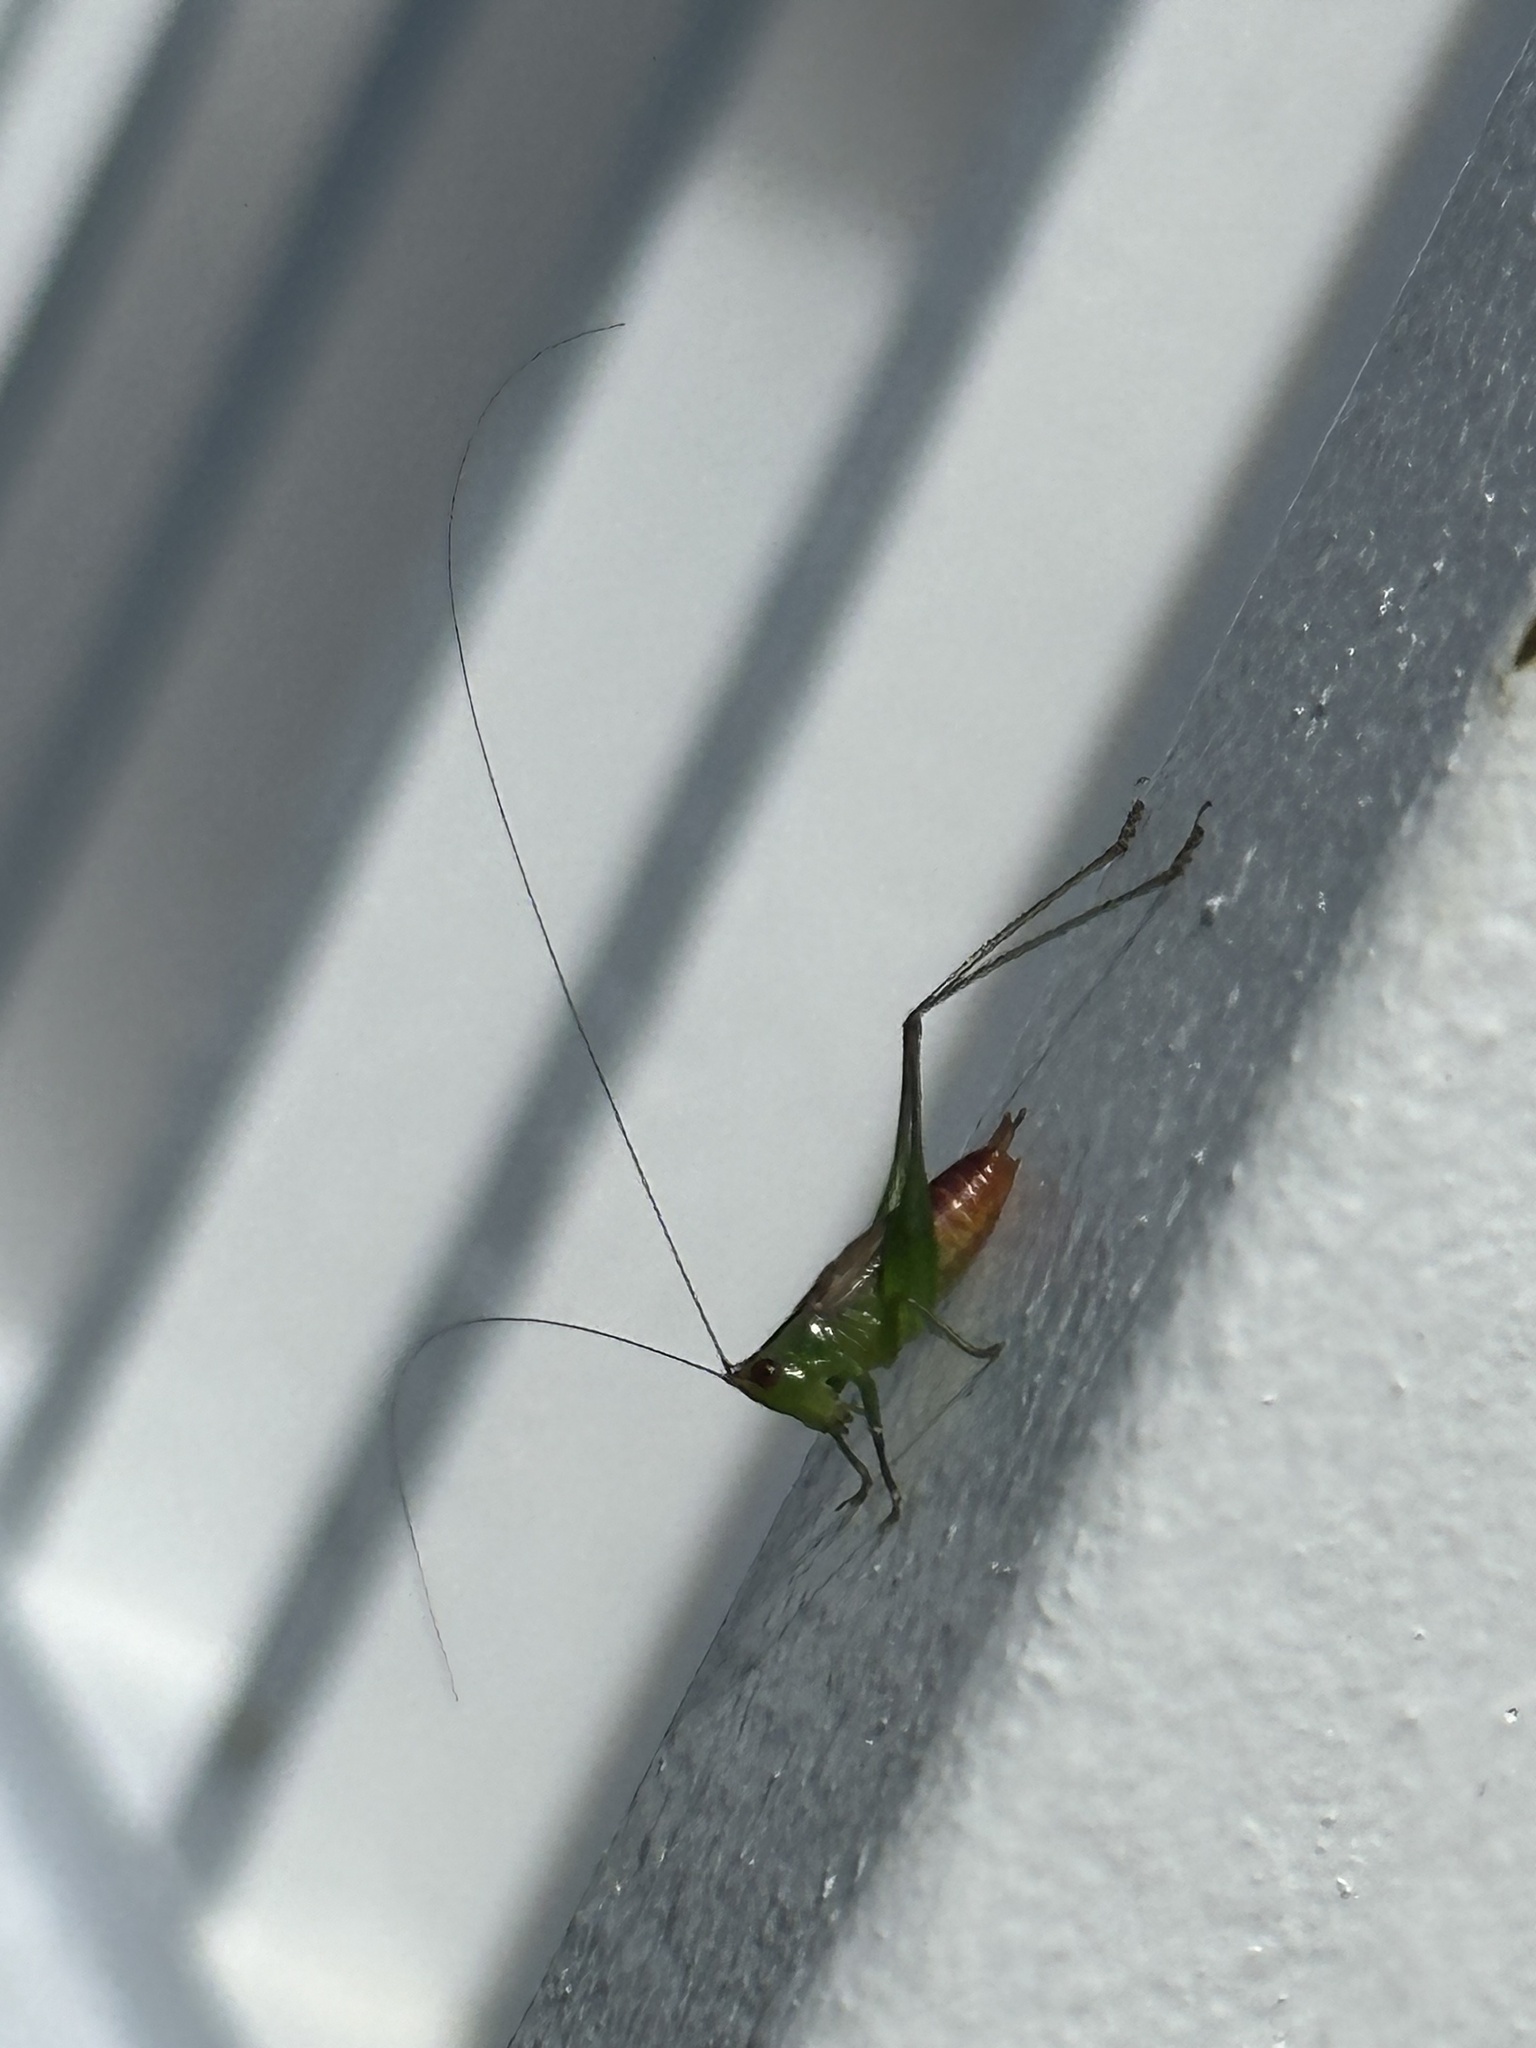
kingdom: Animalia
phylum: Arthropoda
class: Insecta
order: Orthoptera
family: Tettigoniidae
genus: Conocephalus
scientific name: Conocephalus saltator
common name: Katydid
